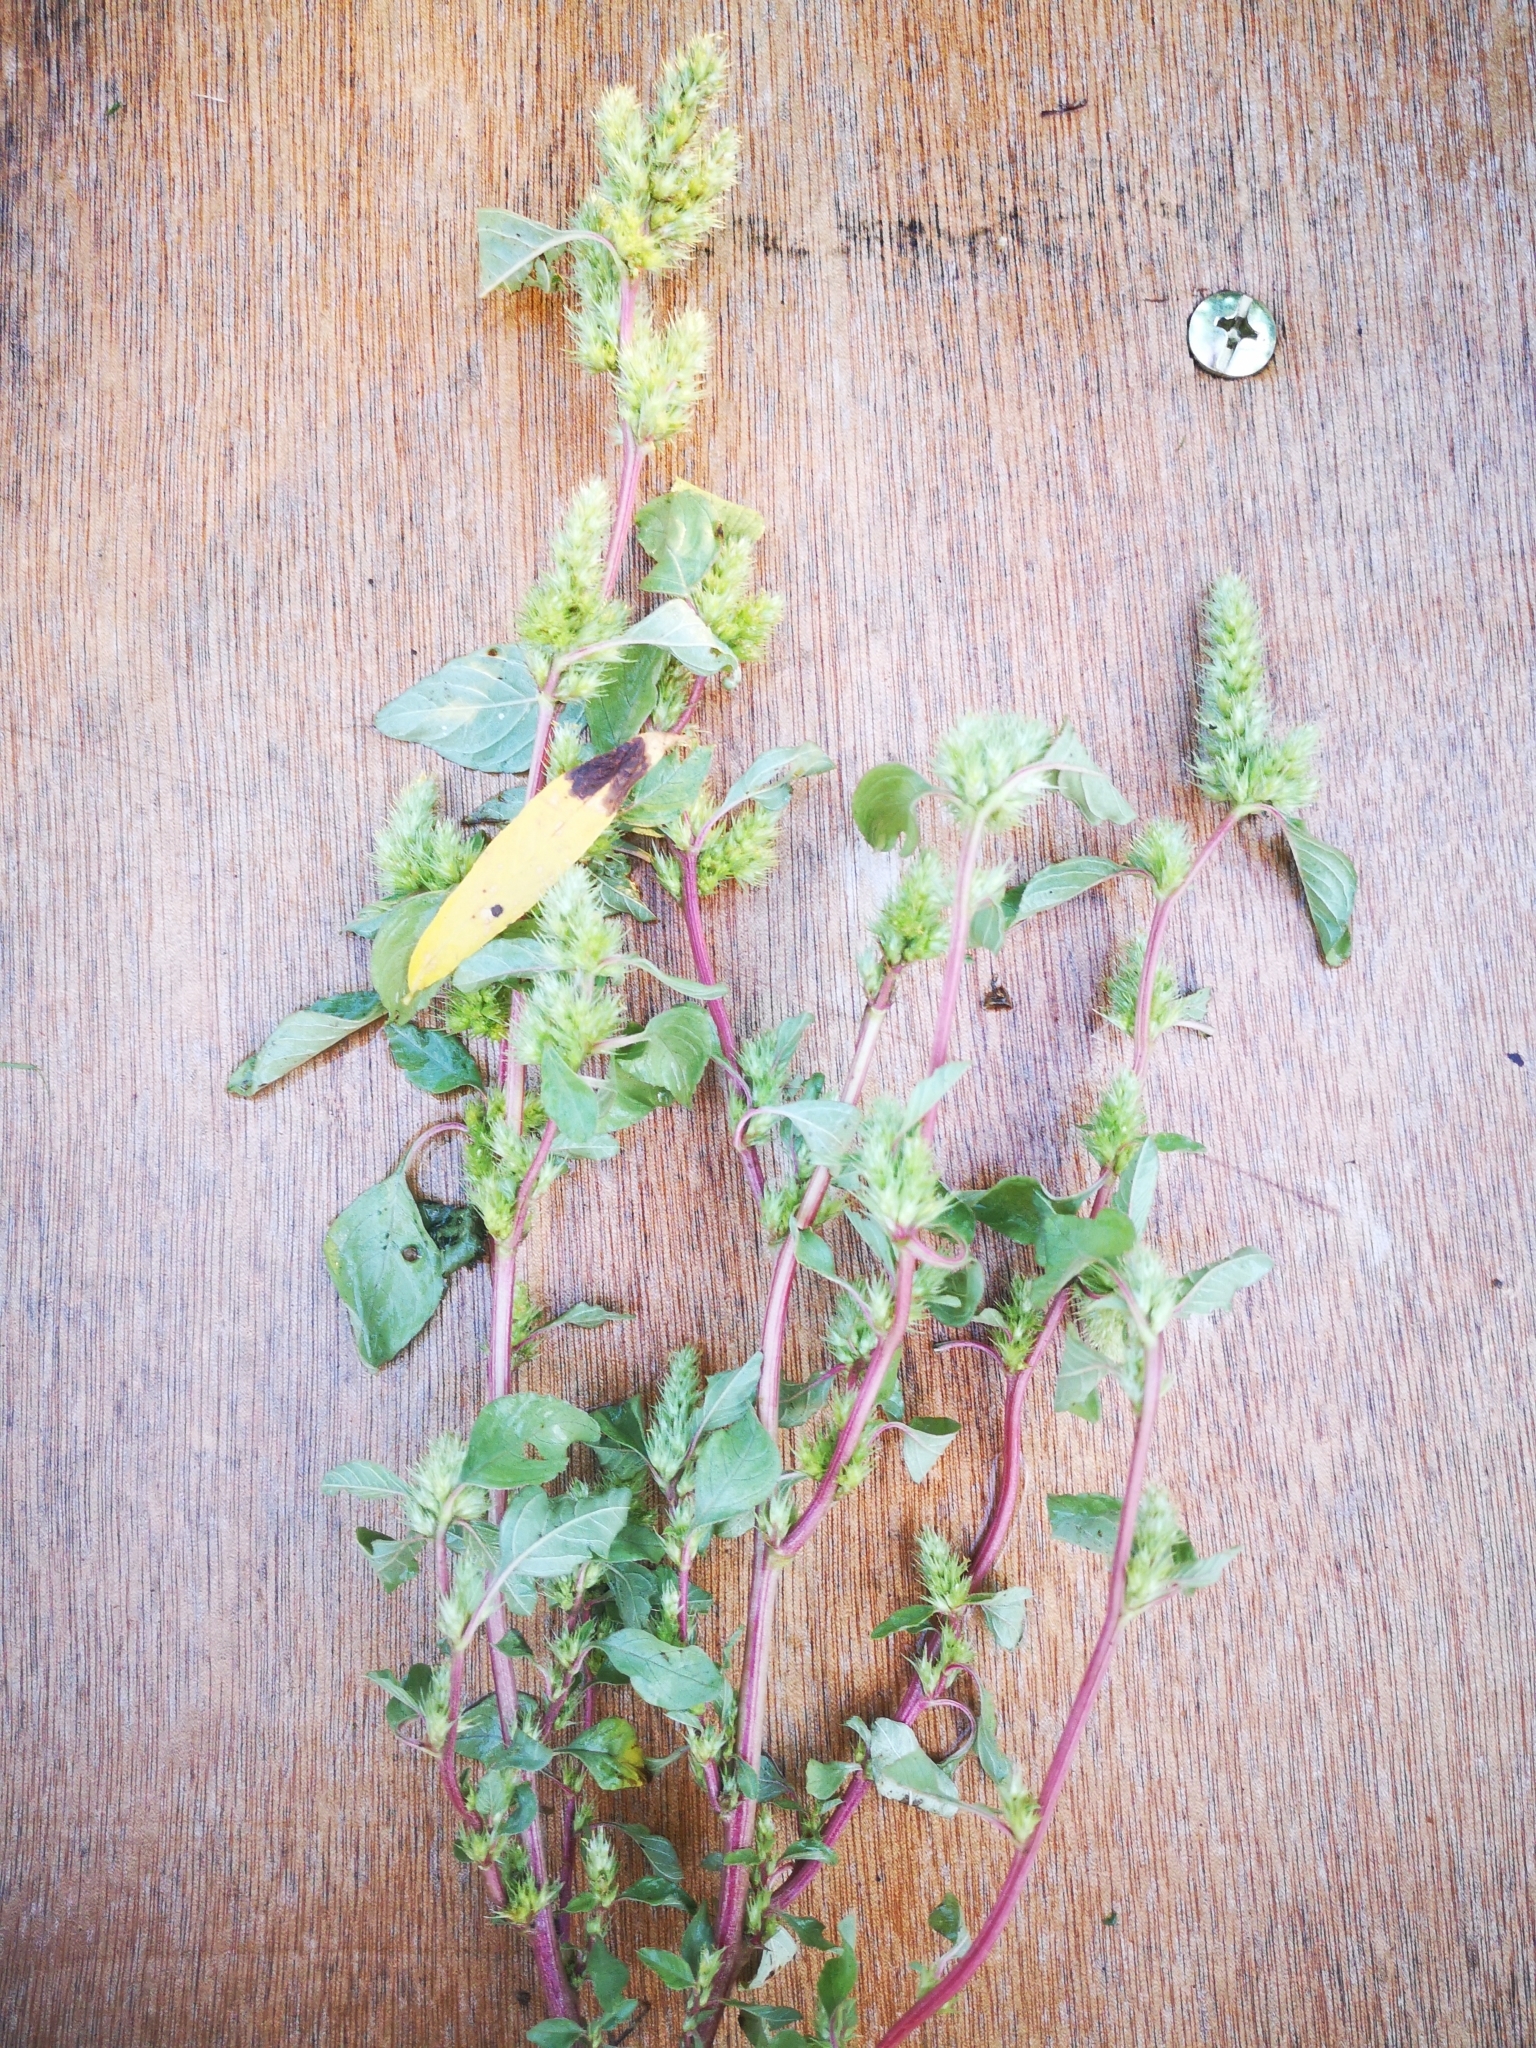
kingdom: Plantae
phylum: Tracheophyta
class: Magnoliopsida
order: Caryophyllales
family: Amaranthaceae
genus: Amaranthus
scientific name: Amaranthus retroflexus
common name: Redroot amaranth
